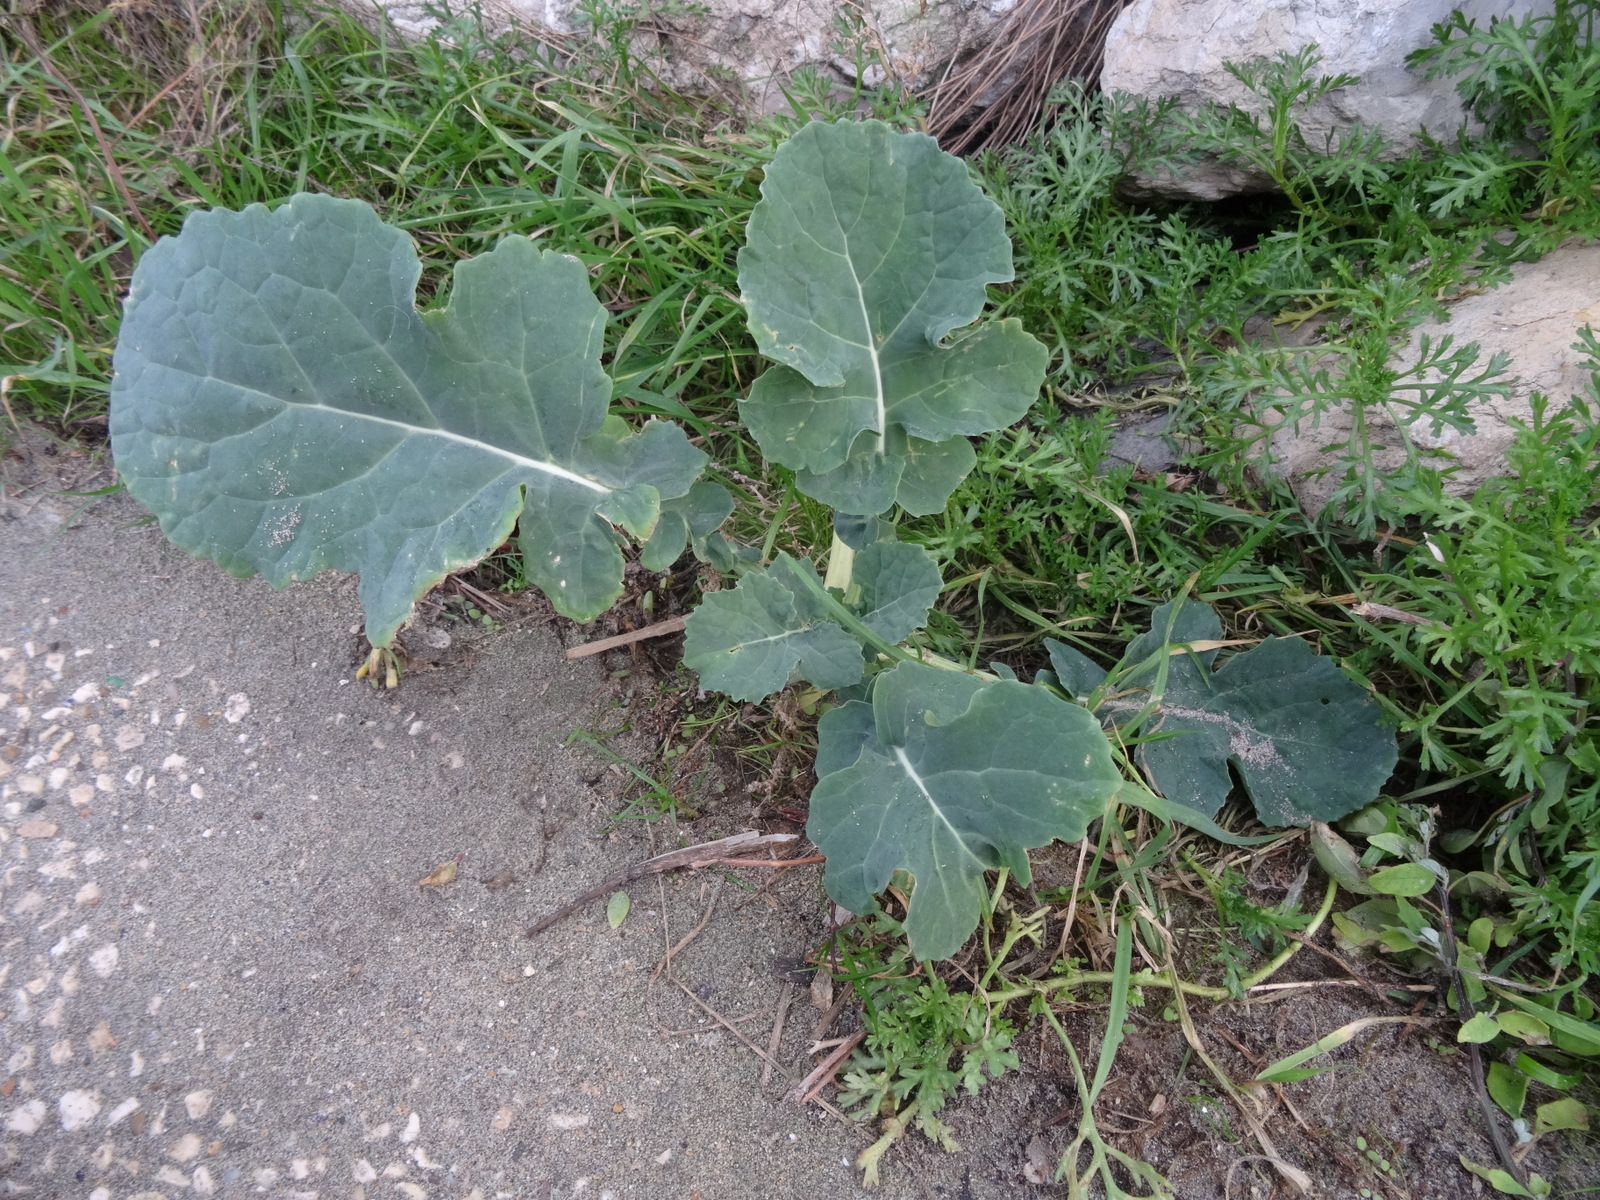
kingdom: Plantae
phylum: Tracheophyta
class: Magnoliopsida
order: Brassicales
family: Brassicaceae
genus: Brassica
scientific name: Brassica oleracea
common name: Cabbage
